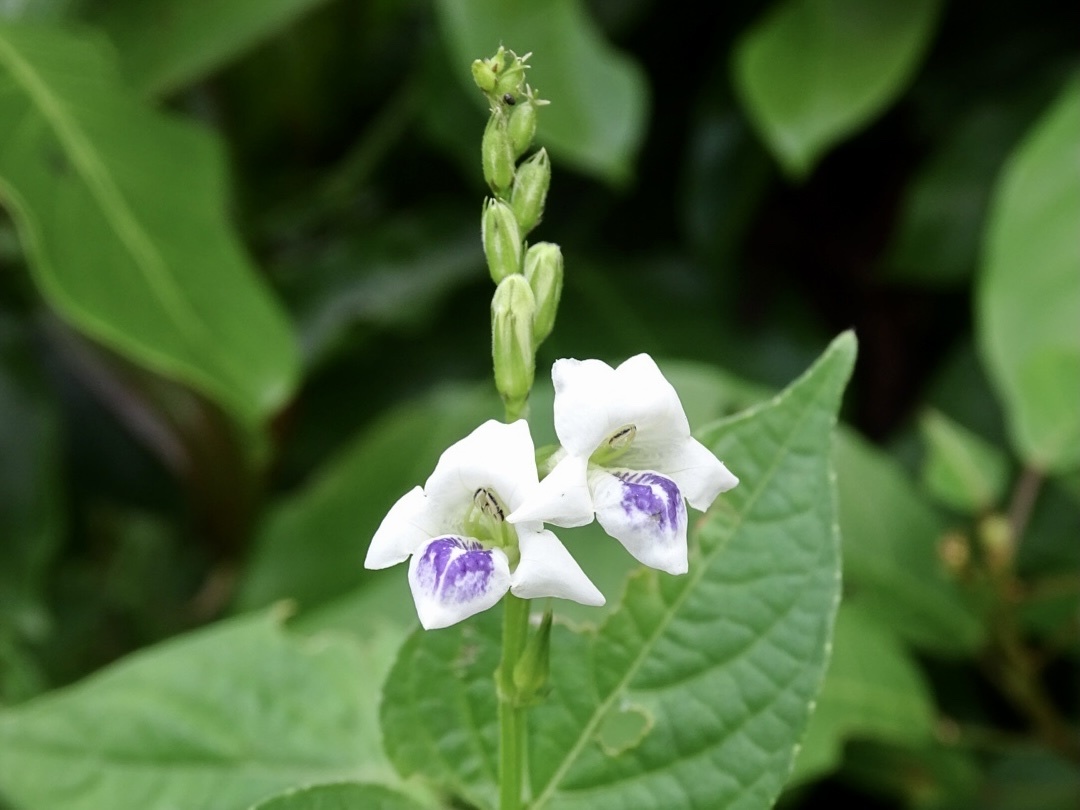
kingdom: Plantae
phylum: Tracheophyta
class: Magnoliopsida
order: Lamiales
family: Acanthaceae
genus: Asystasia
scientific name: Asystasia intrusa
